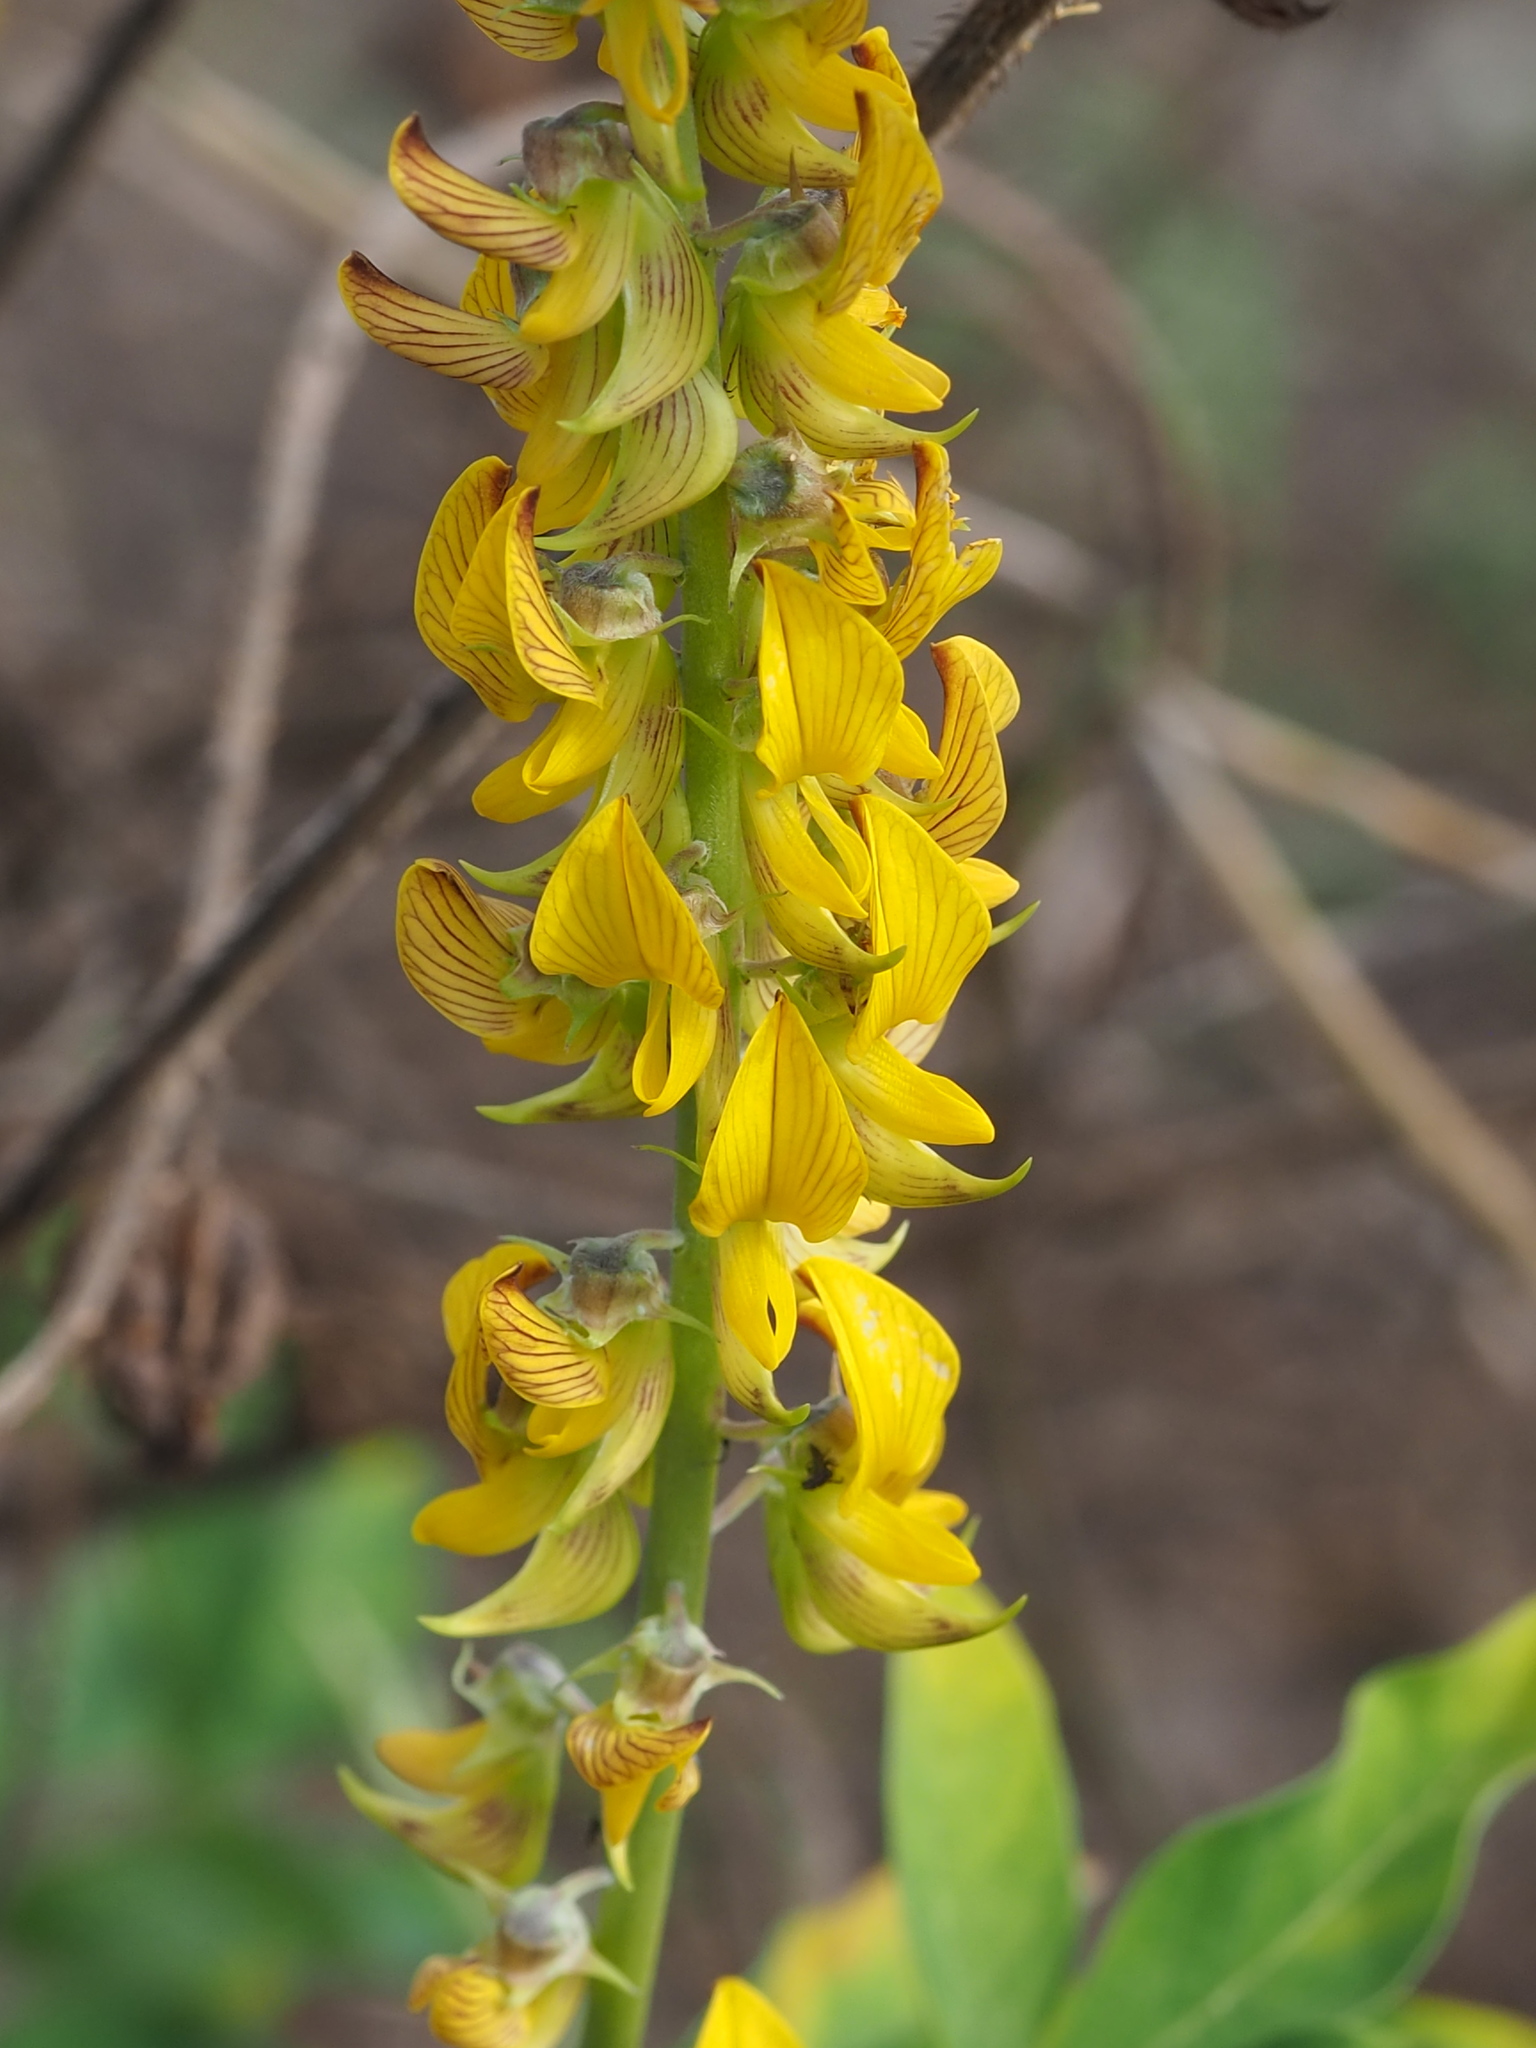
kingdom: Plantae
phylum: Tracheophyta
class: Magnoliopsida
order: Fabales
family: Fabaceae
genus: Crotalaria
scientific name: Crotalaria pallida
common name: Smooth rattlebox
